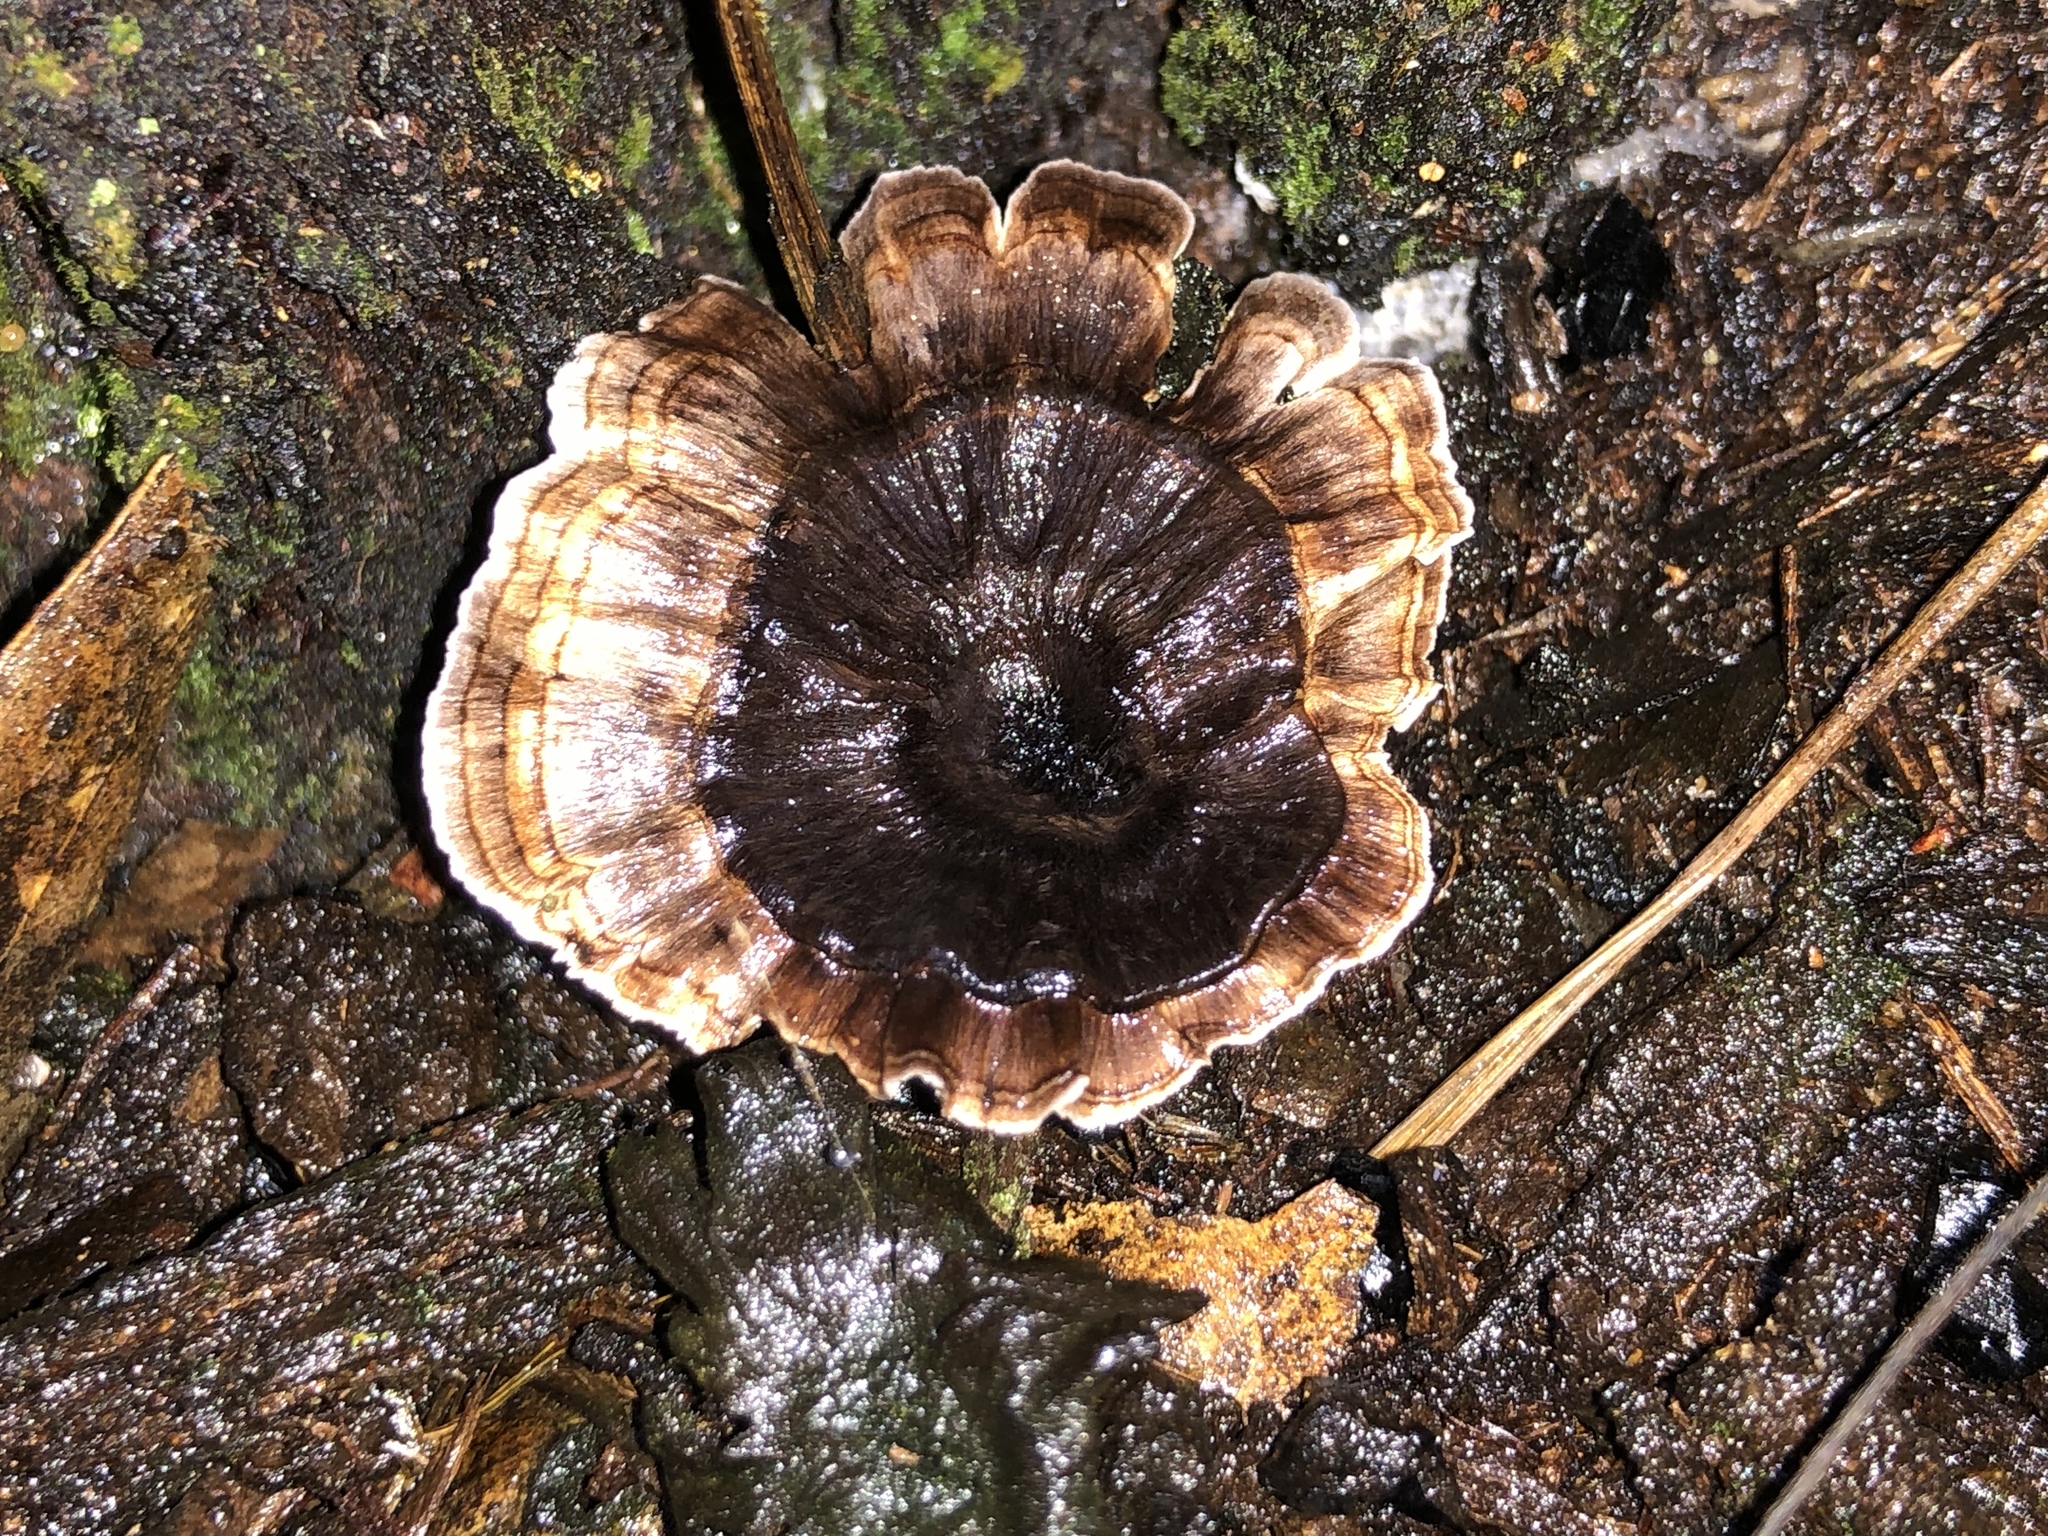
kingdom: Fungi
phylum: Basidiomycota
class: Agaricomycetes
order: Thelephorales
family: Thelephoraceae
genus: Phellodon
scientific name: Phellodon niger
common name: Black tooth
